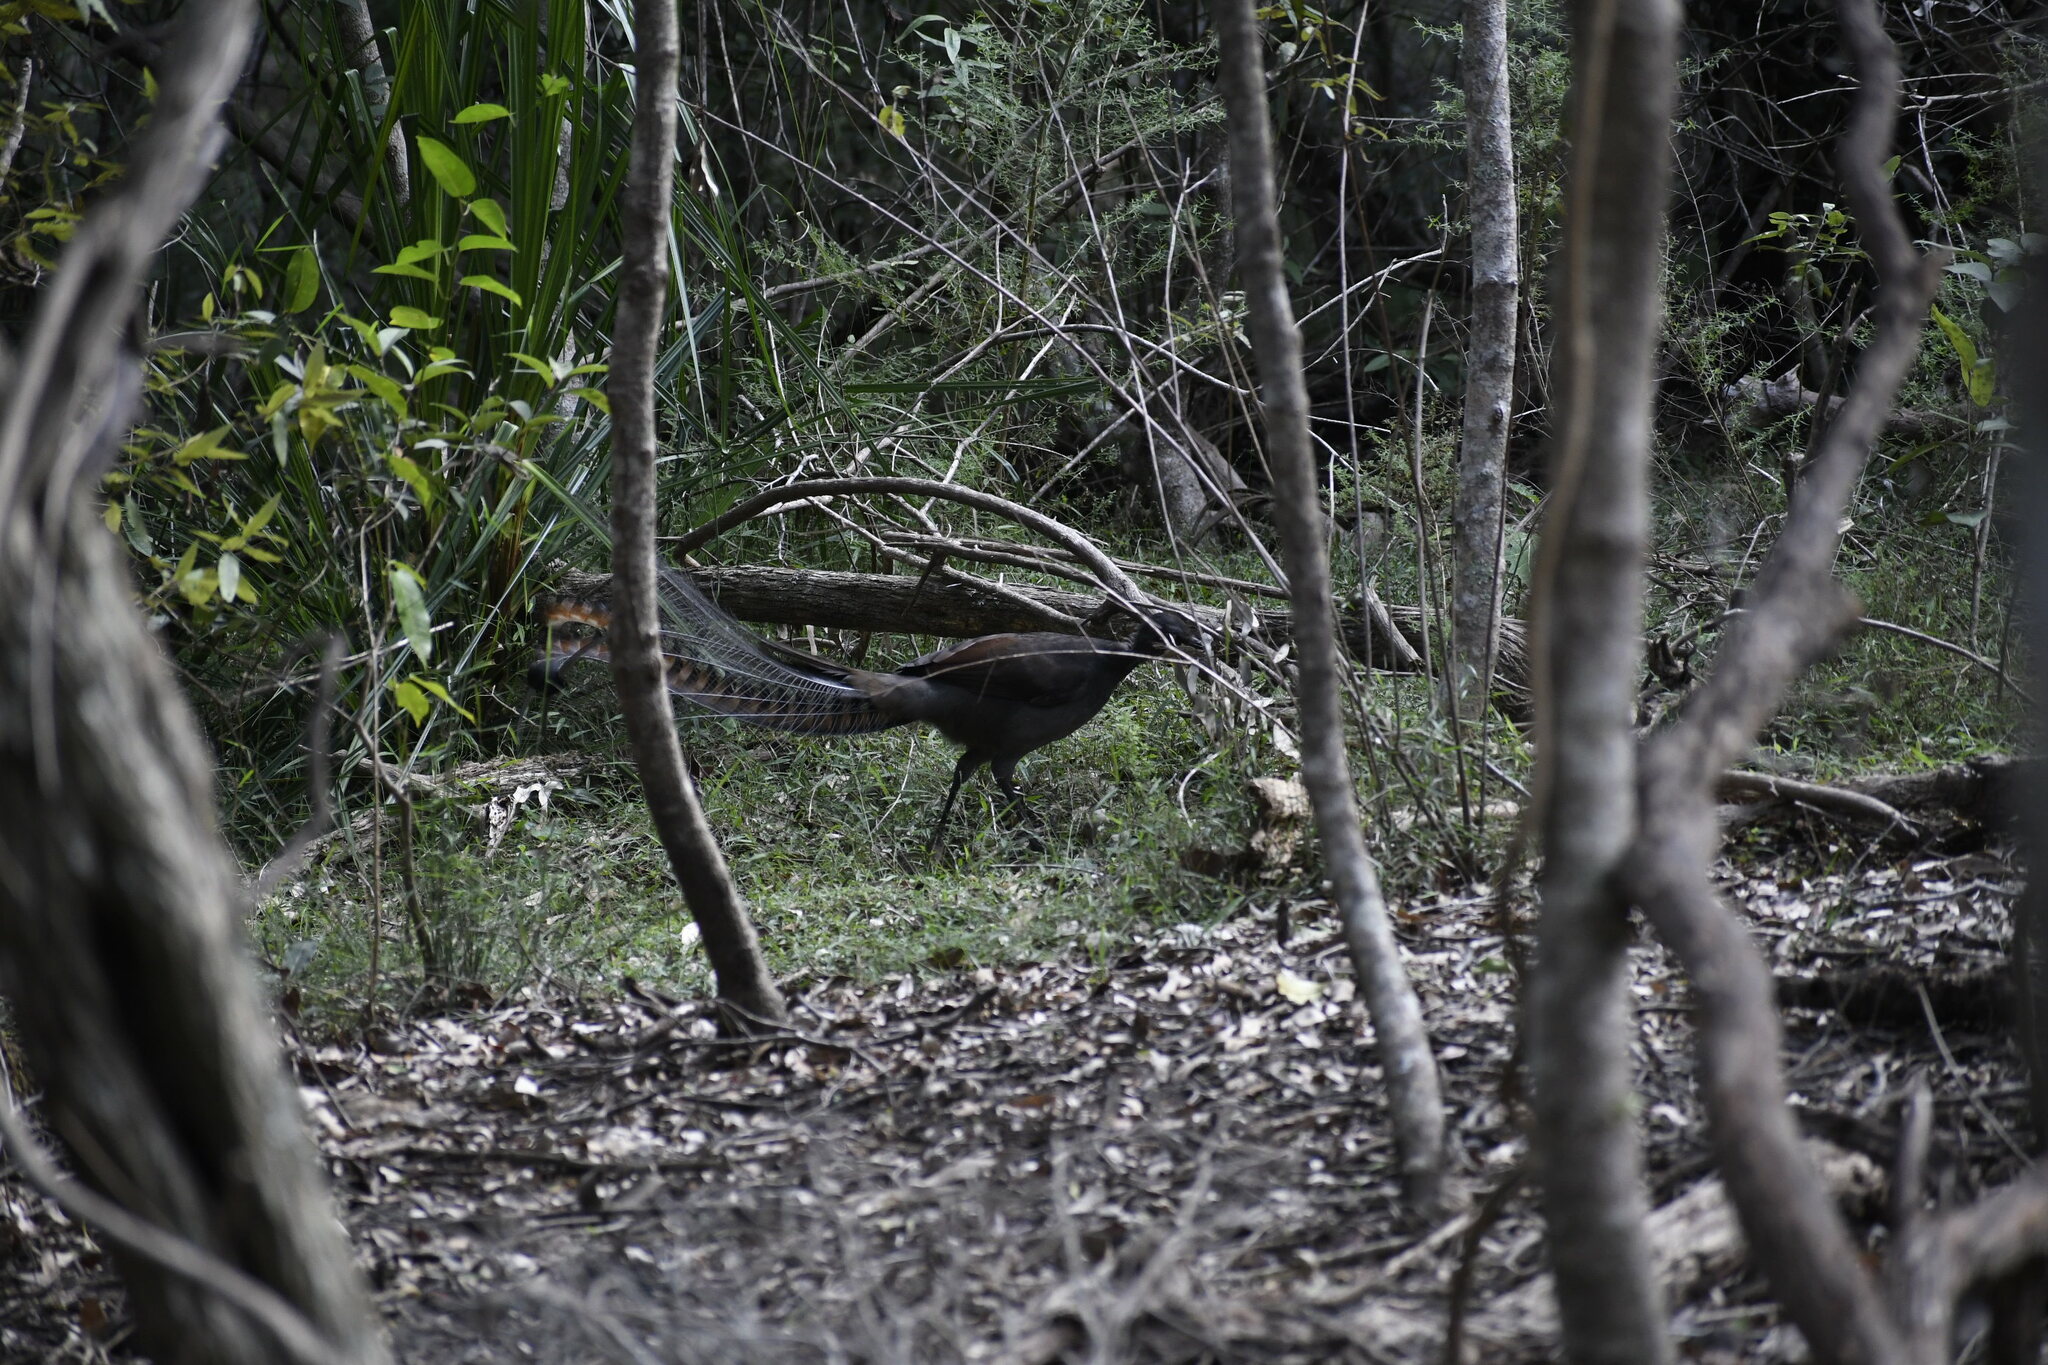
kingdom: Animalia
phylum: Chordata
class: Aves
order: Passeriformes
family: Menuridae
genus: Menura
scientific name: Menura novaehollandiae
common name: Superb lyrebird
